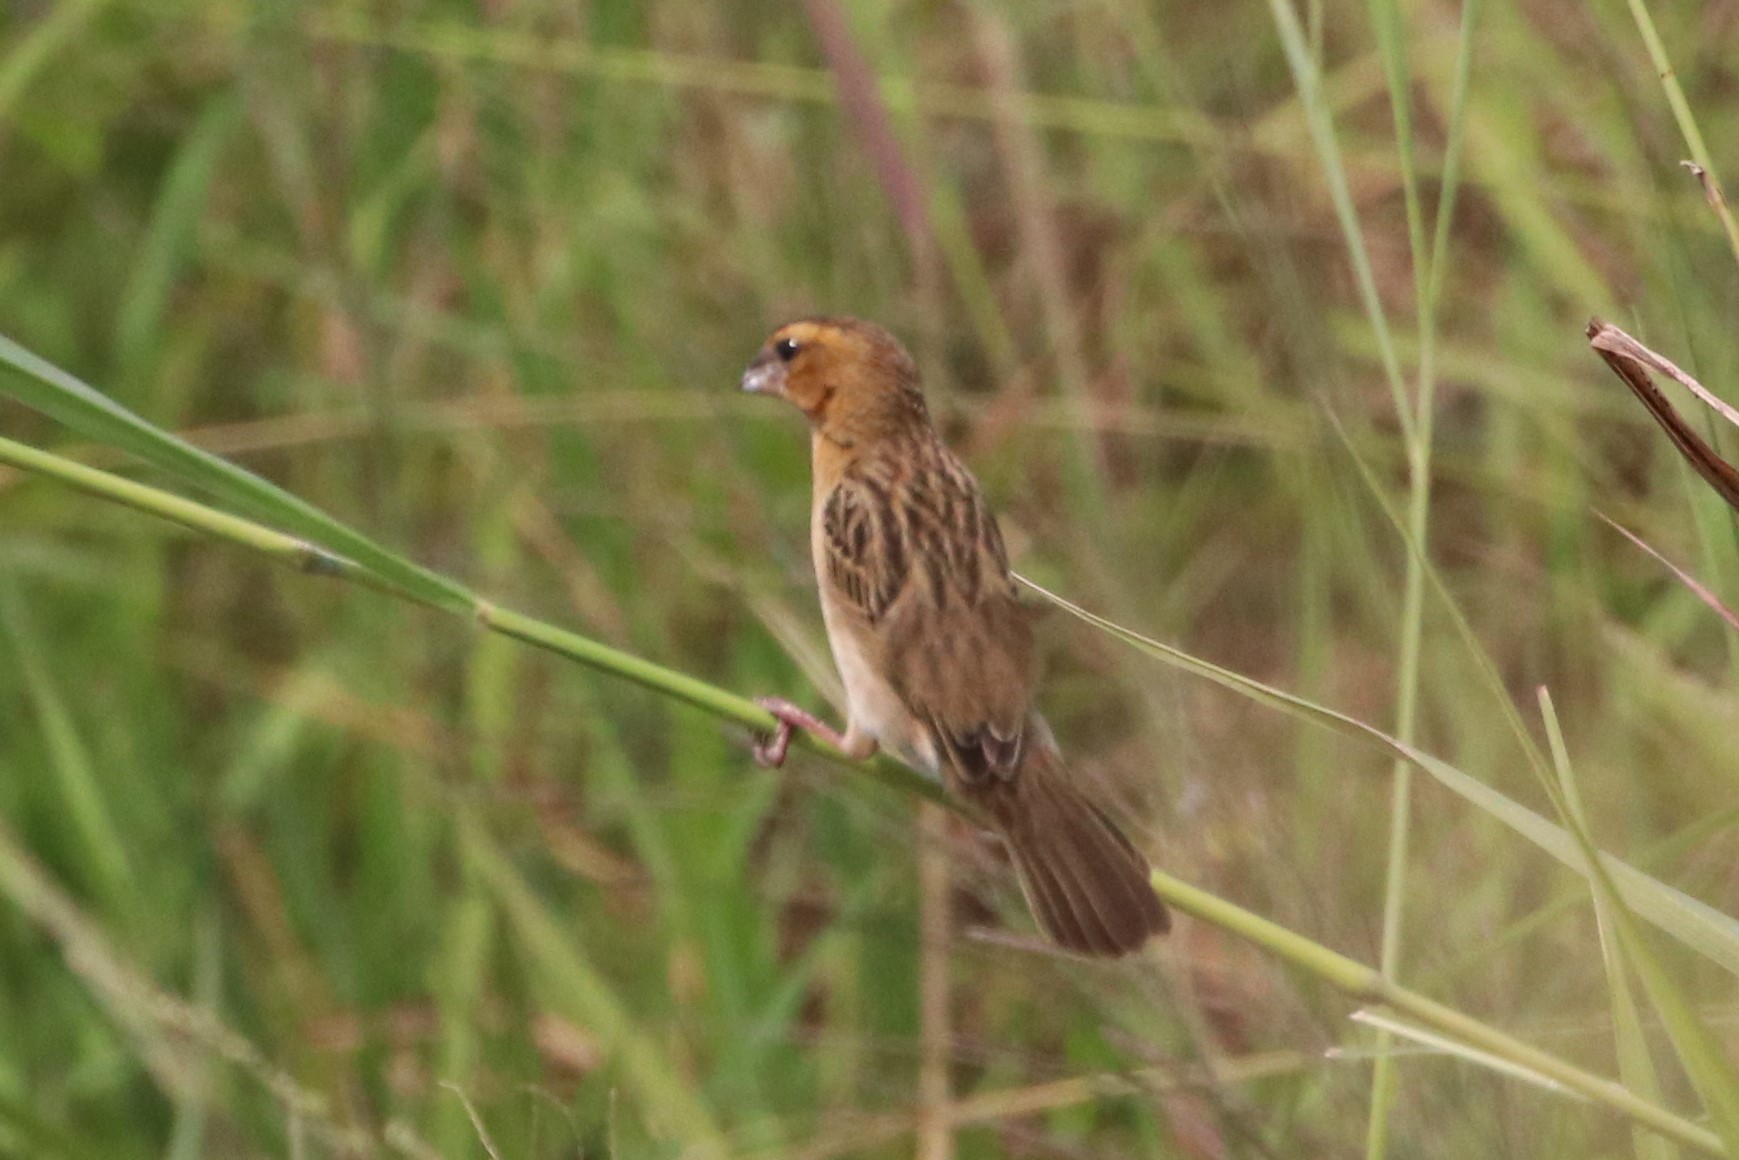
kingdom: Animalia
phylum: Chordata
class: Aves
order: Passeriformes
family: Ploceidae
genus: Ploceus
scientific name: Ploceus hypoxanthus
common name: Asian golden weaver
